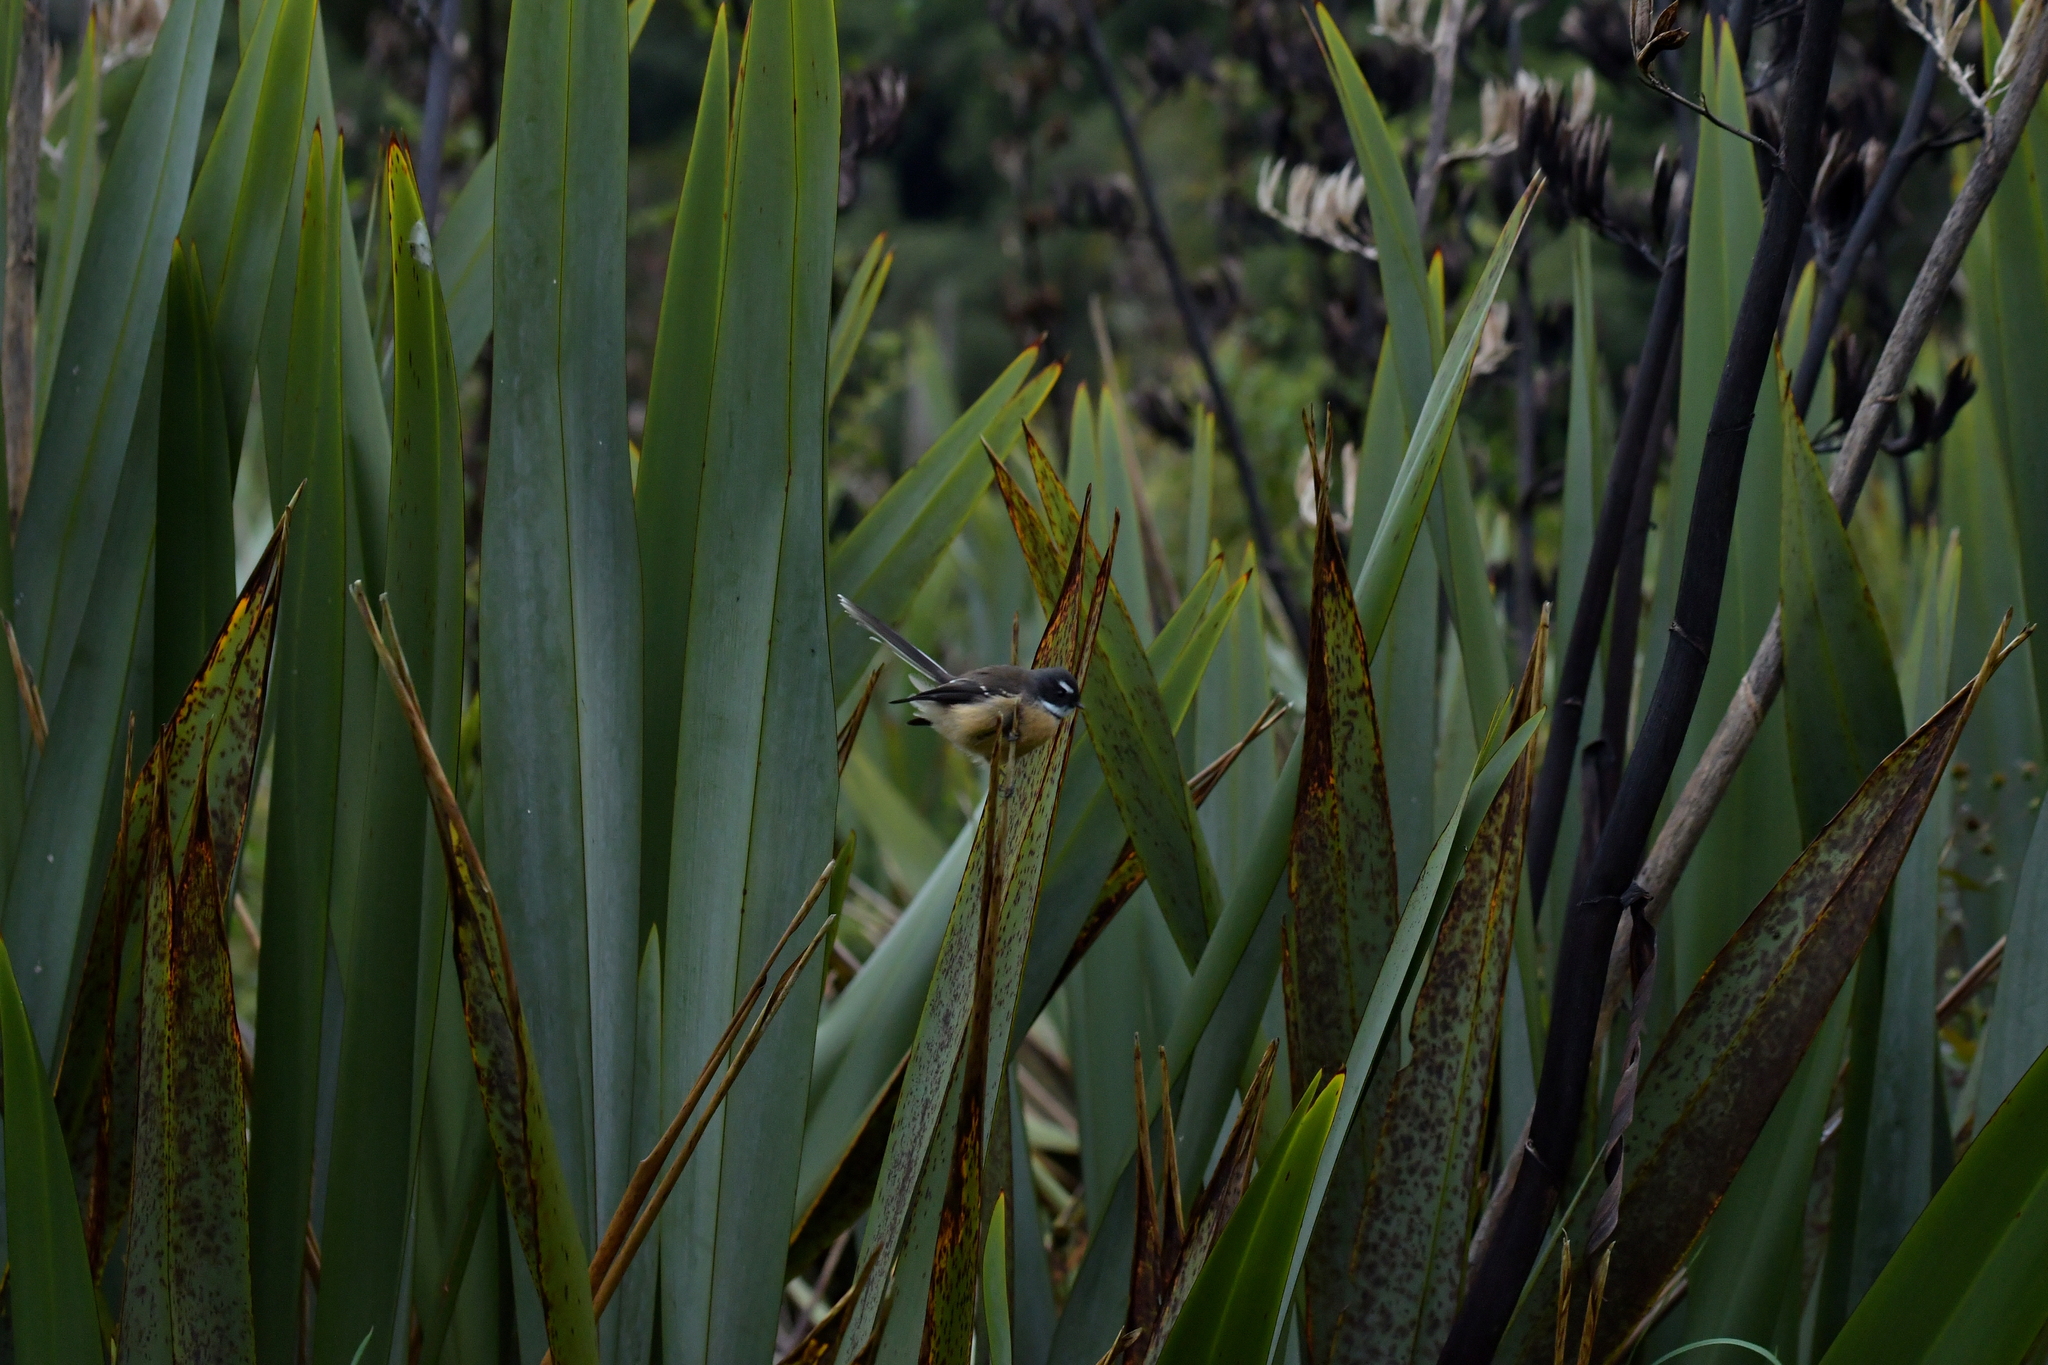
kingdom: Animalia
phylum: Chordata
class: Aves
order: Passeriformes
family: Rhipiduridae
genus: Rhipidura
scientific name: Rhipidura fuliginosa
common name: New zealand fantail
